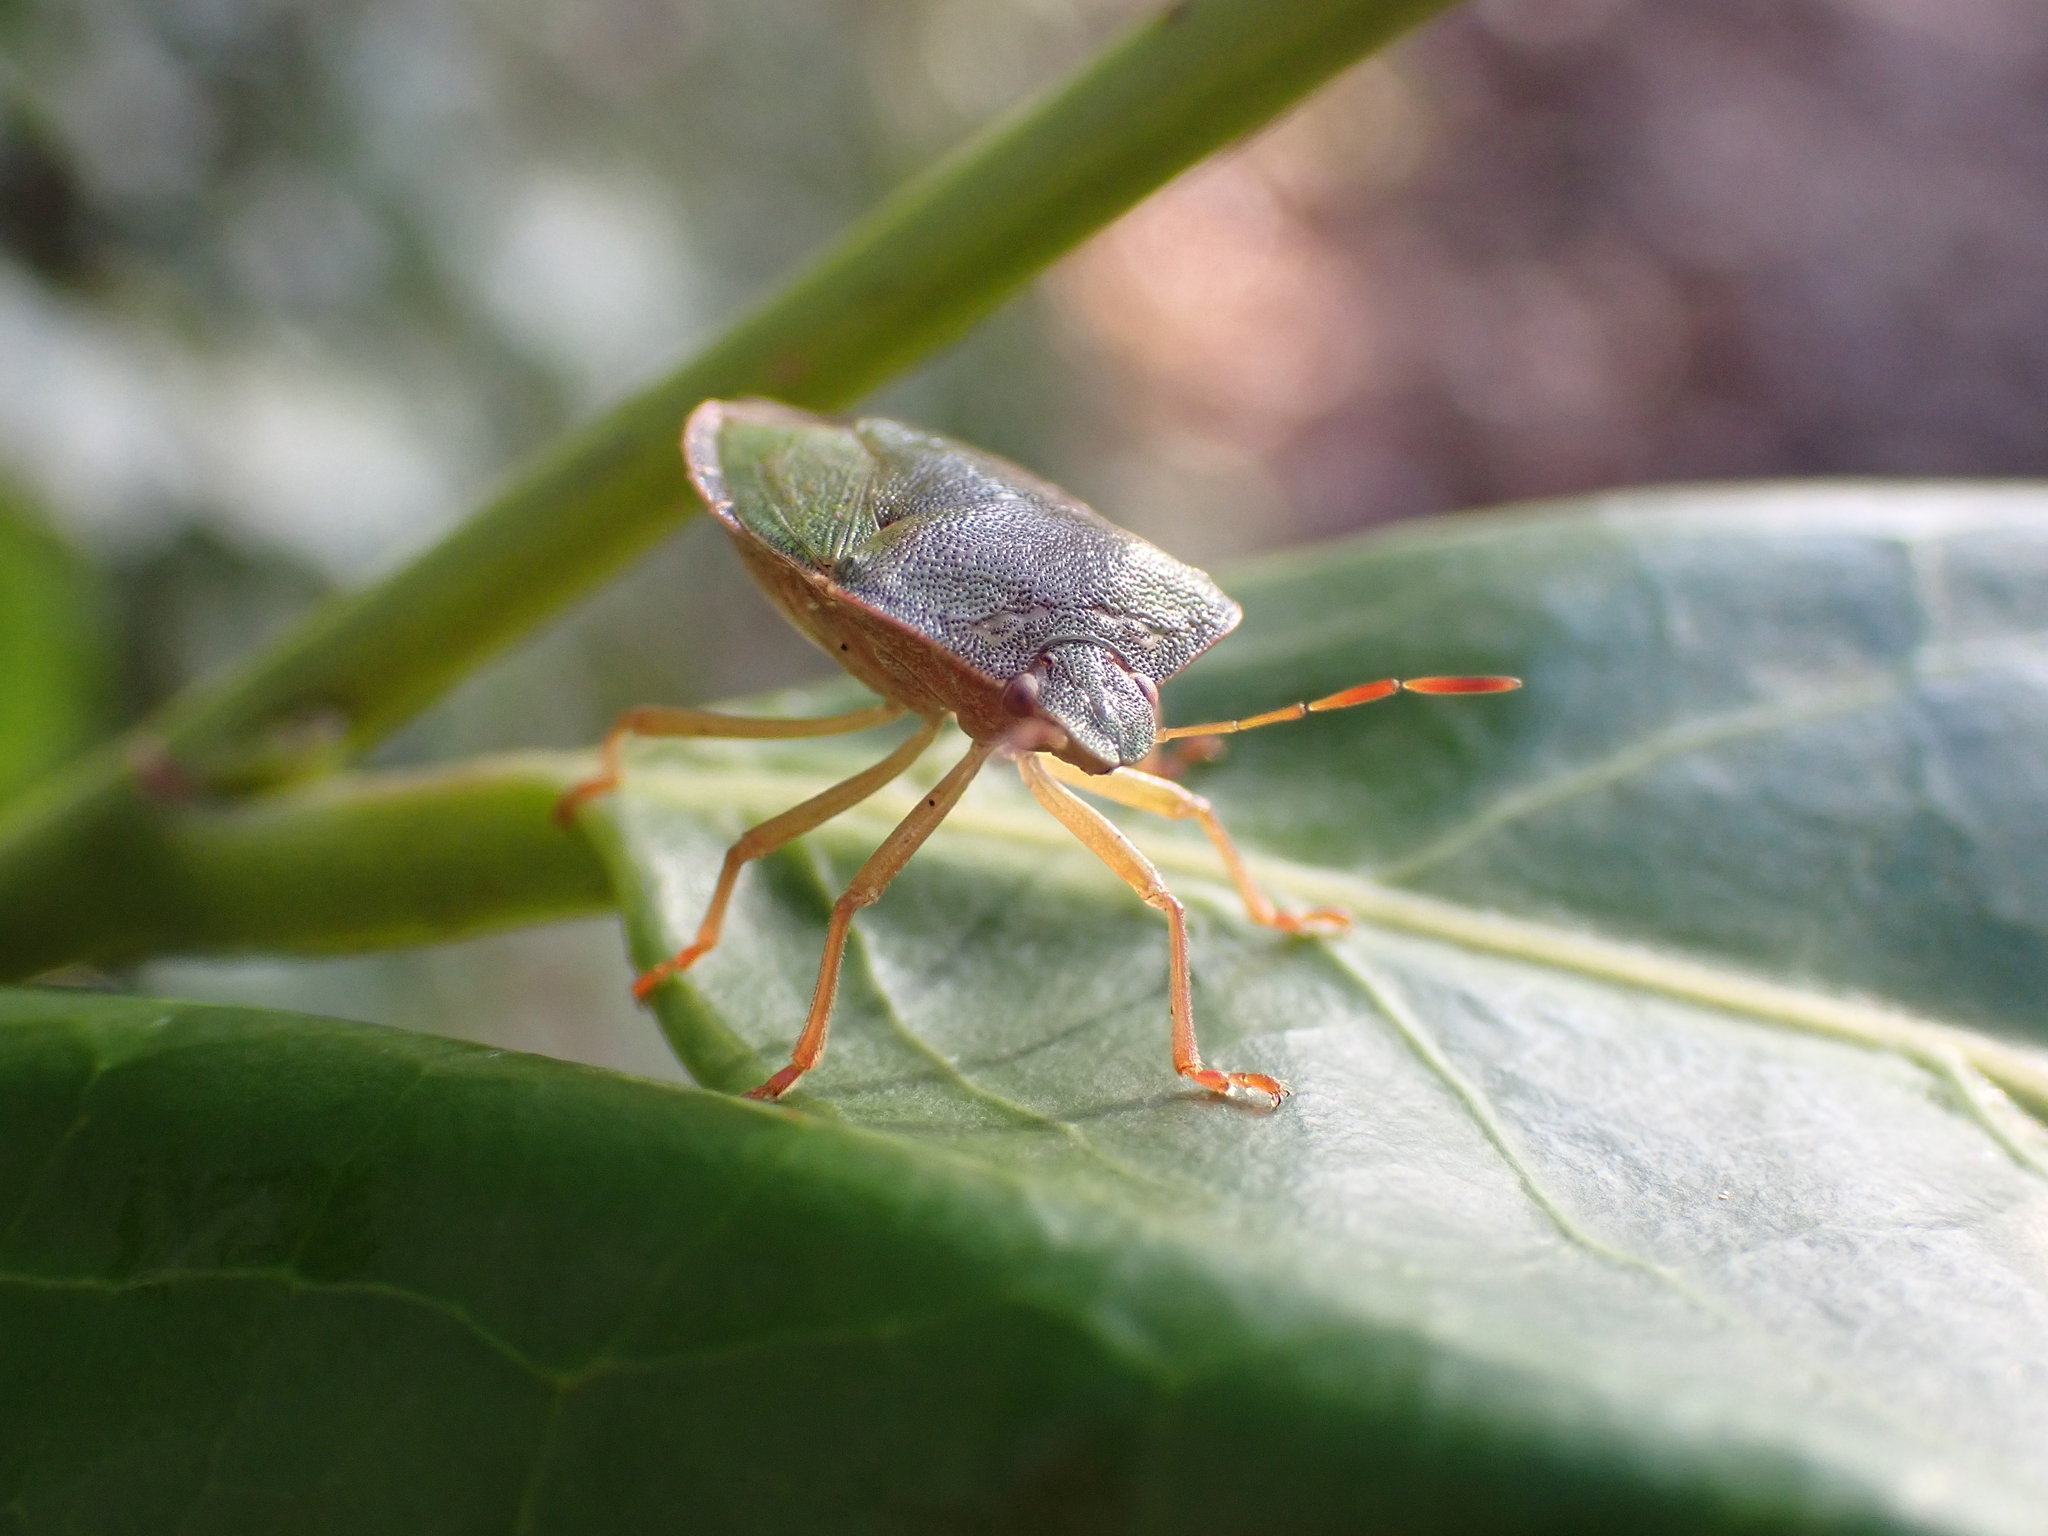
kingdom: Animalia
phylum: Arthropoda
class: Insecta
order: Hemiptera
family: Pentatomidae
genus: Palomena
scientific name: Palomena prasina
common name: Green shieldbug
